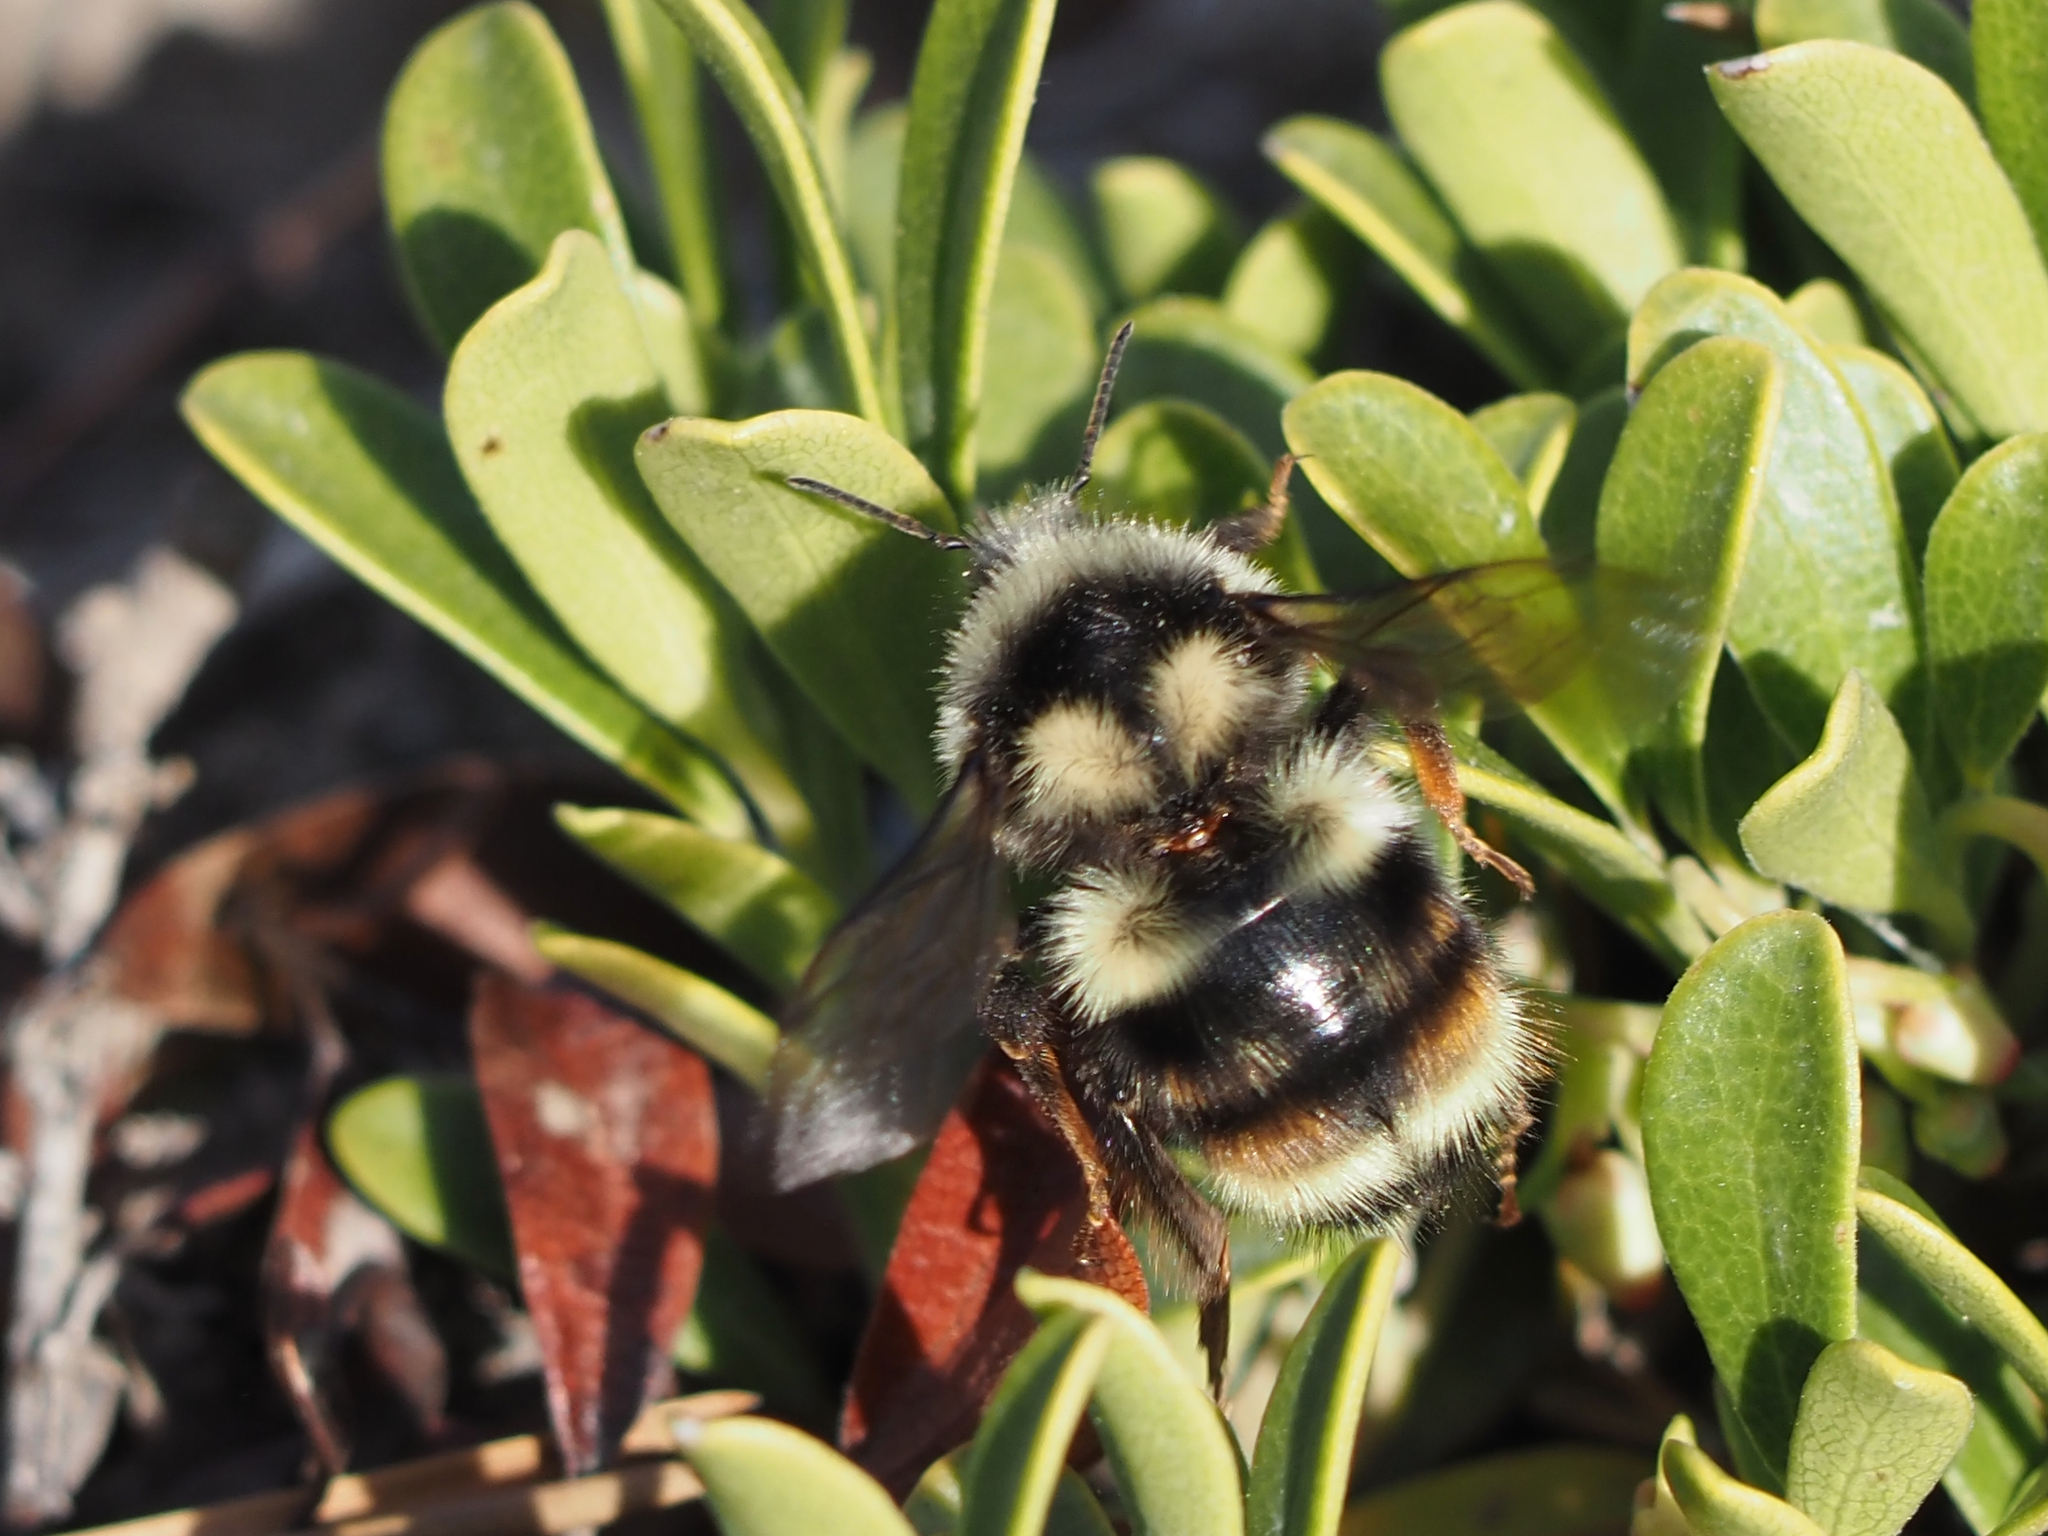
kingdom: Animalia
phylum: Arthropoda
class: Insecta
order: Hymenoptera
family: Apidae
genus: Bombus
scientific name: Bombus vancouverensis
